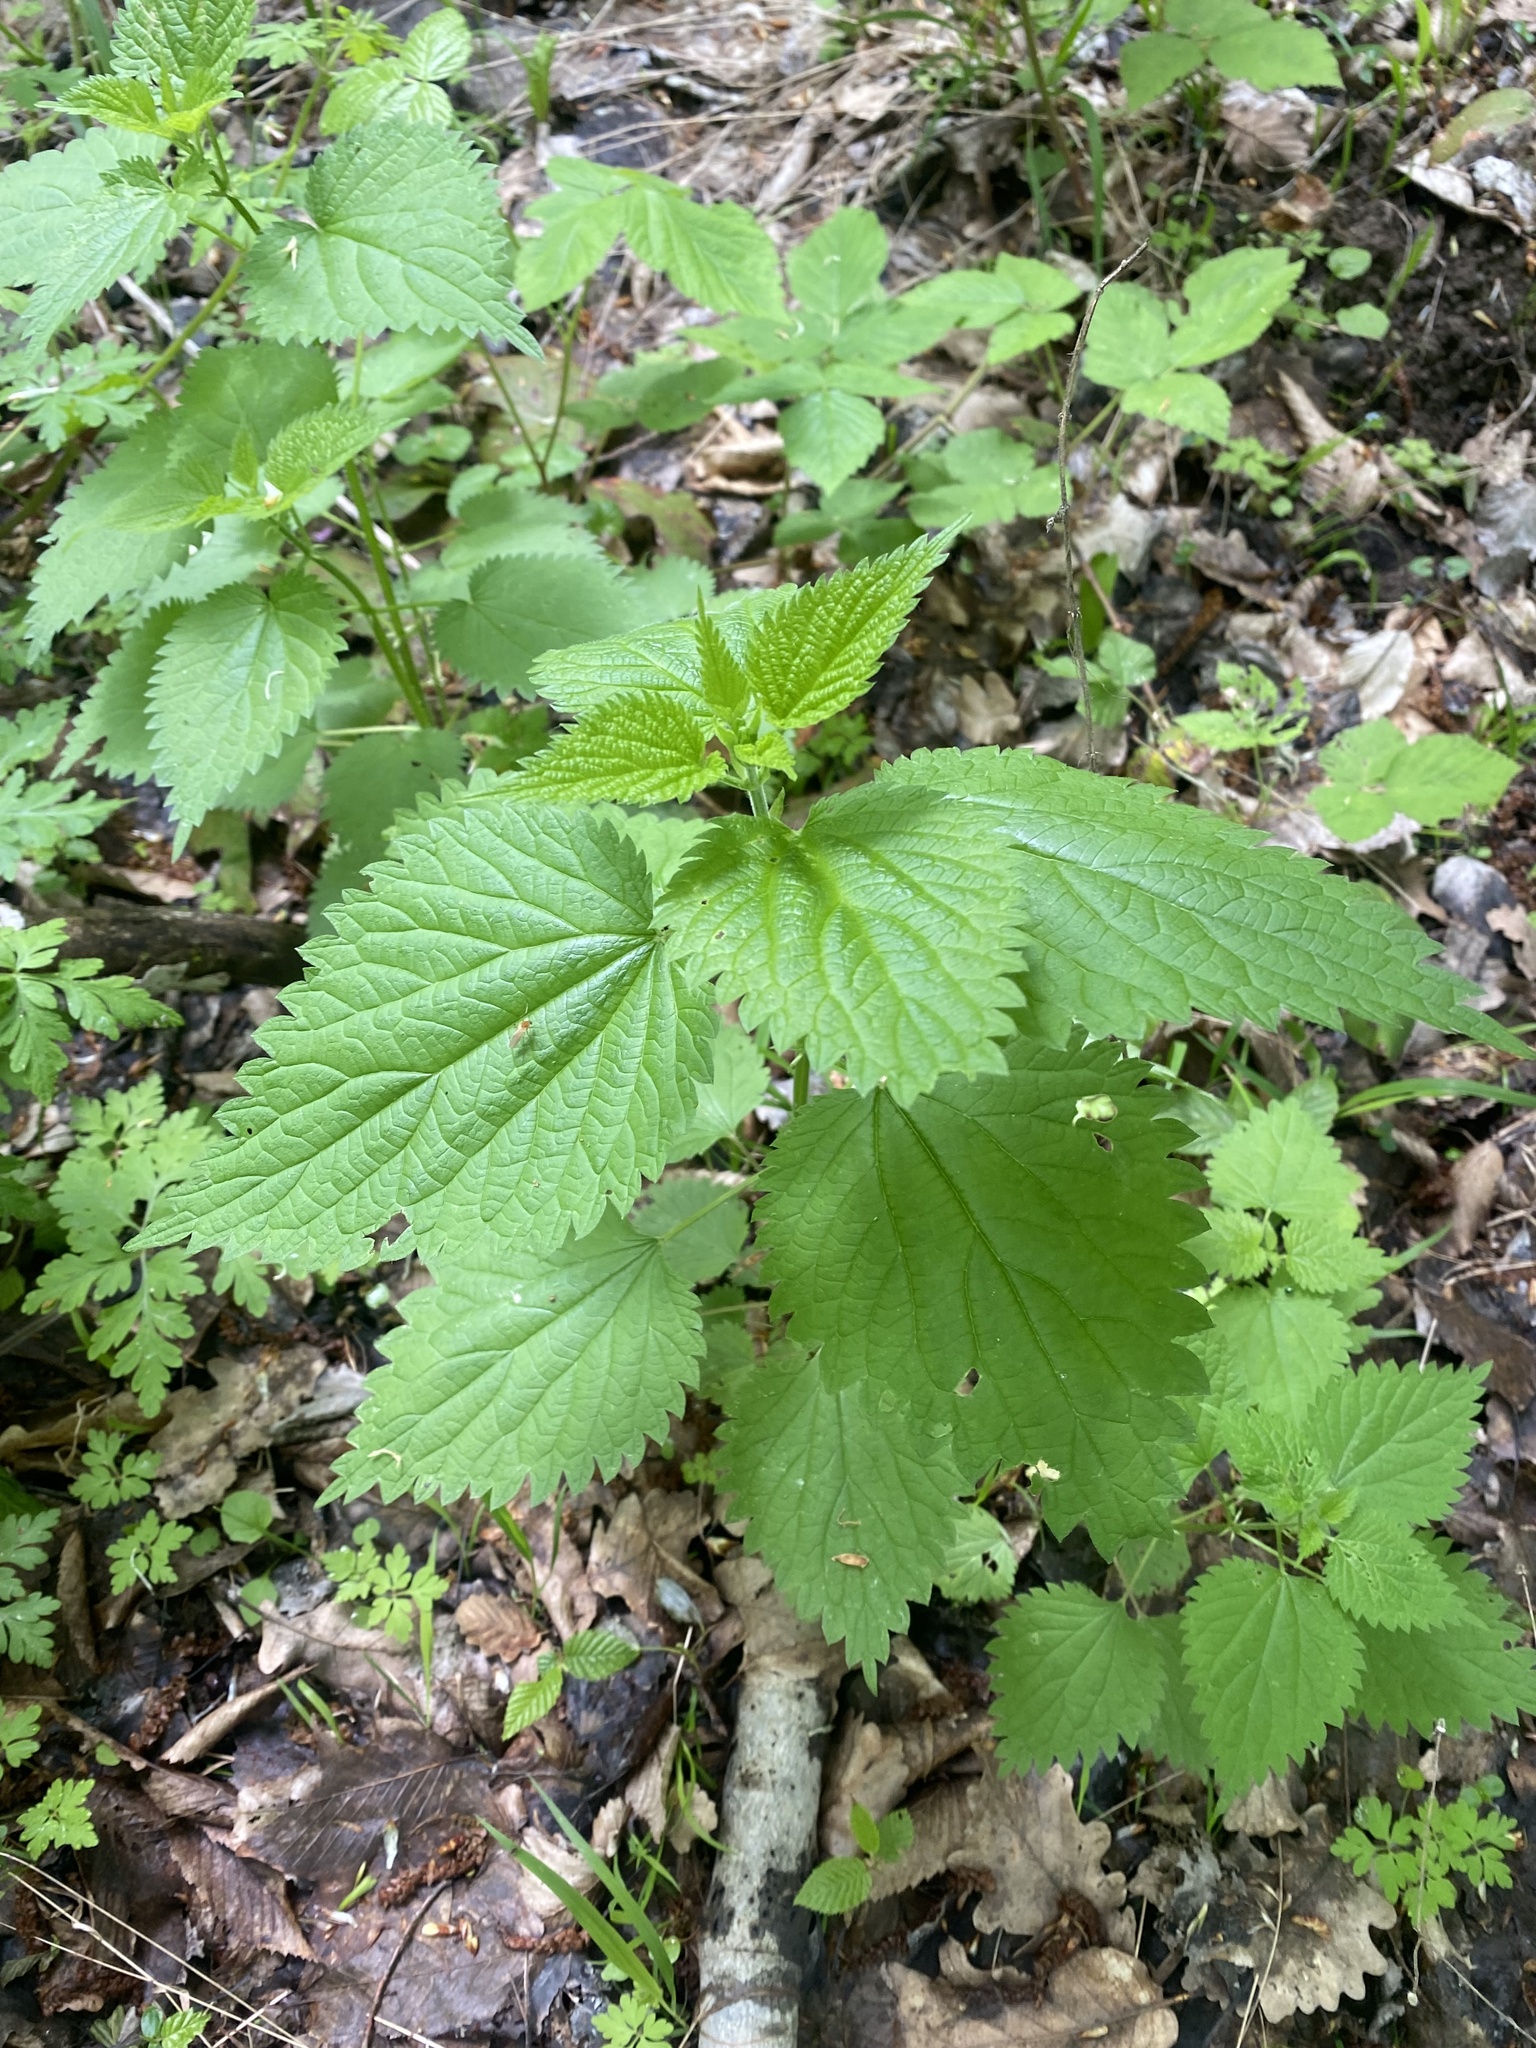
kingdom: Plantae
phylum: Tracheophyta
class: Magnoliopsida
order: Rosales
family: Urticaceae
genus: Urtica
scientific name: Urtica dioica
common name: Common nettle
